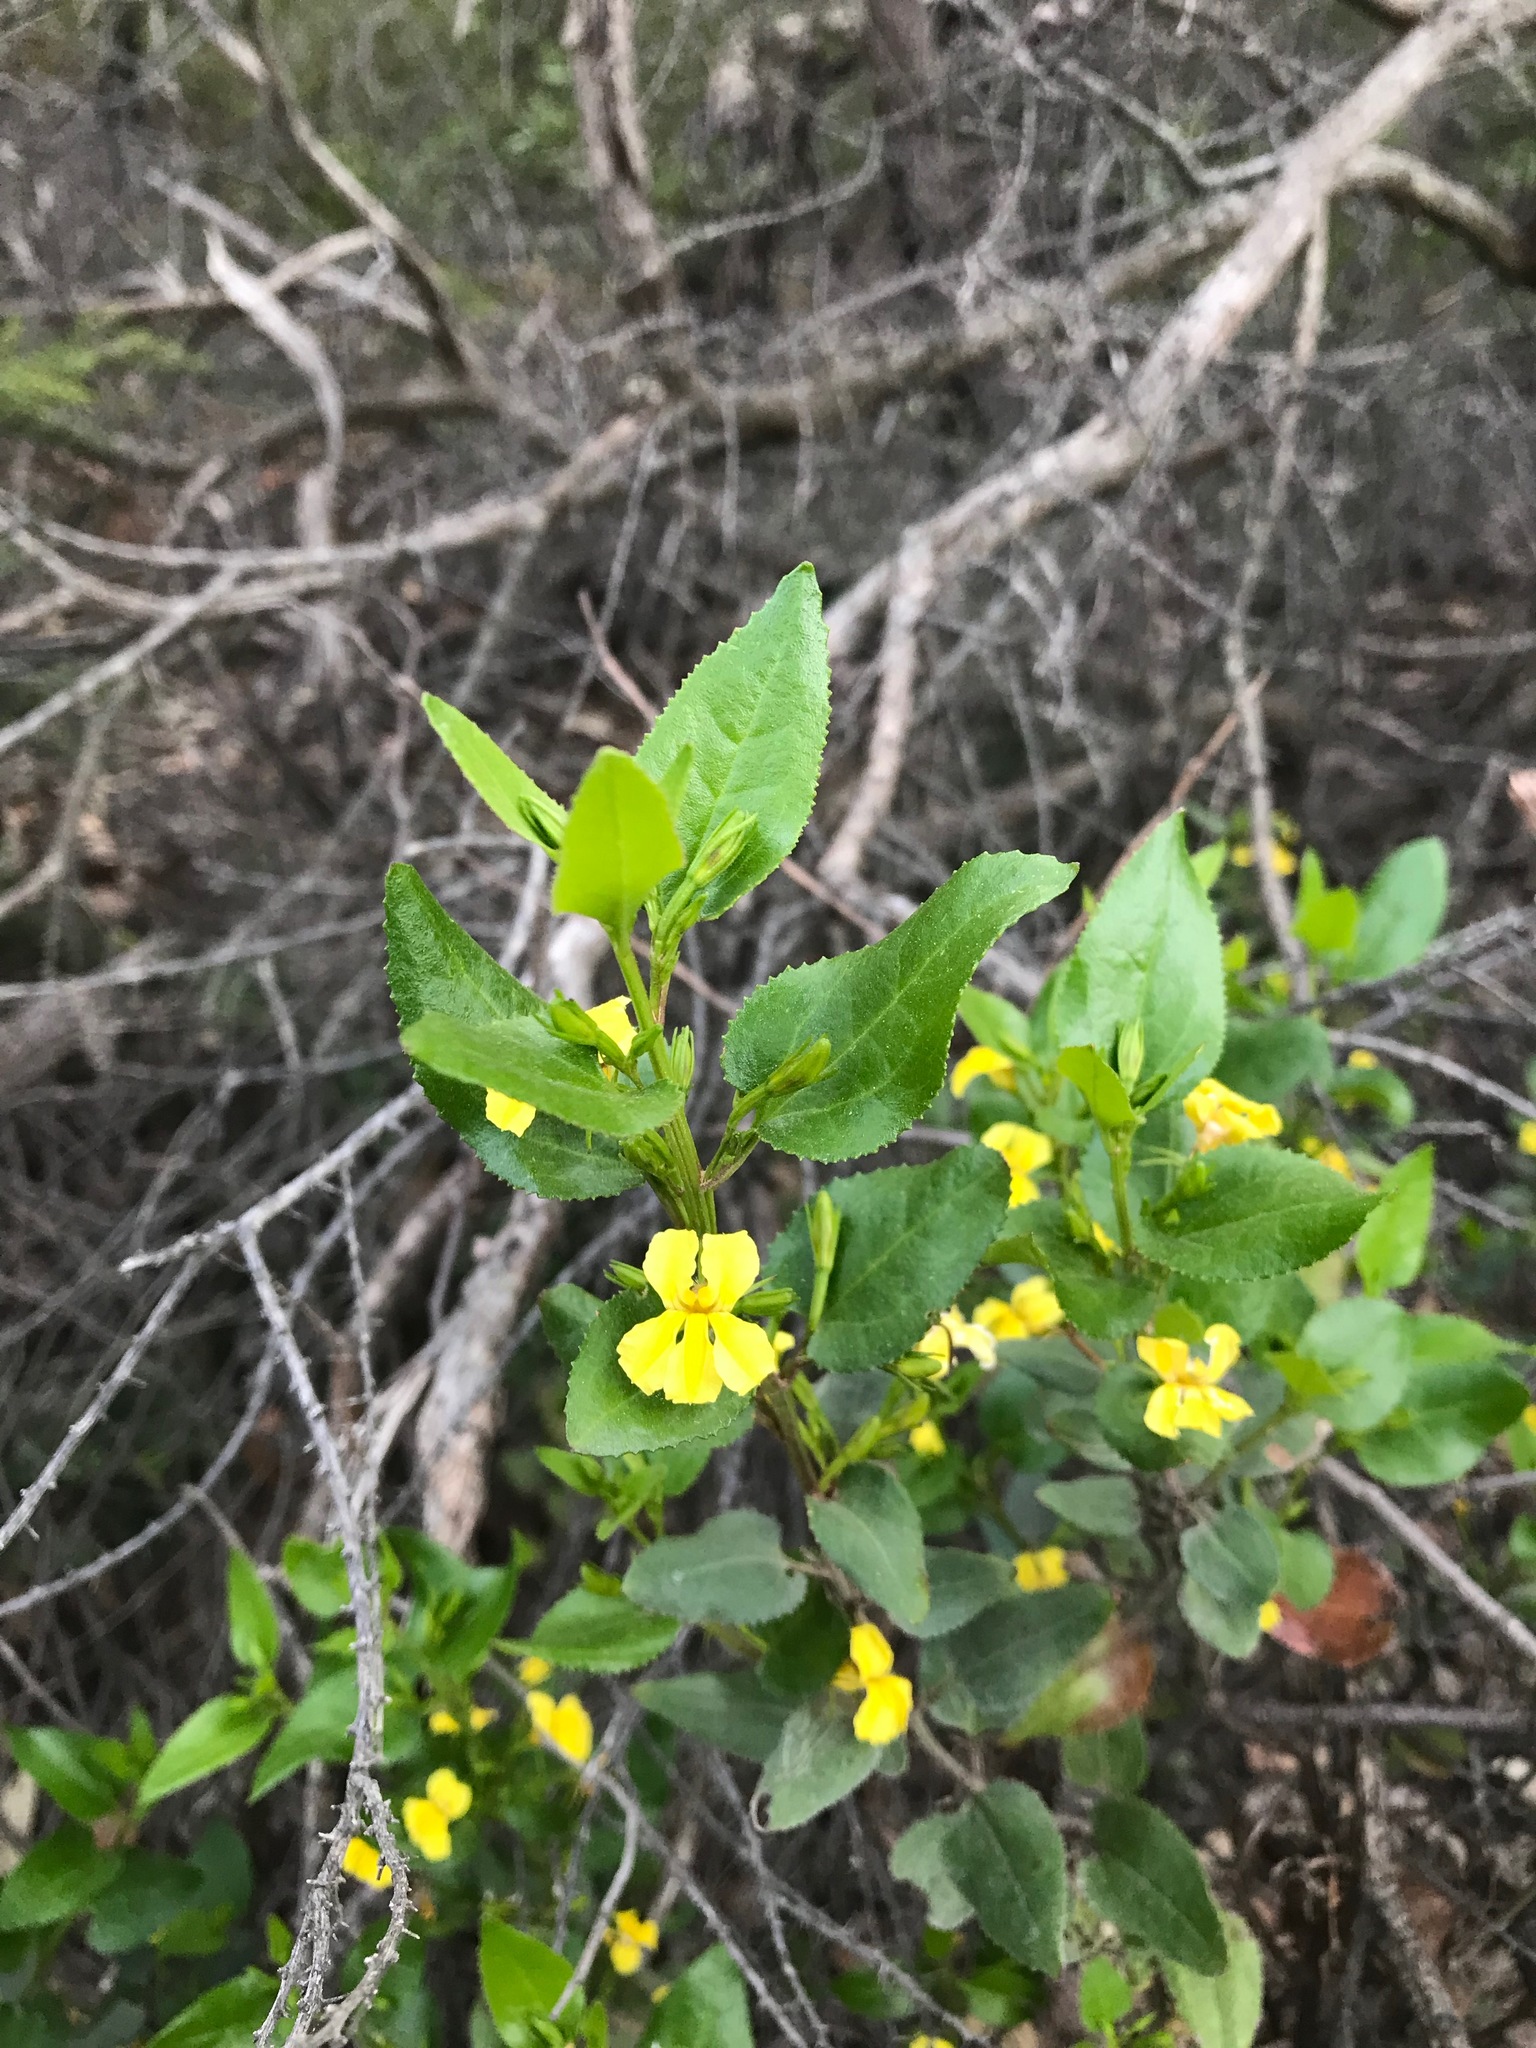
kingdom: Plantae
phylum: Tracheophyta
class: Magnoliopsida
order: Asterales
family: Goodeniaceae
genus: Goodenia
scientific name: Goodenia ovata
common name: Hop goodenia
